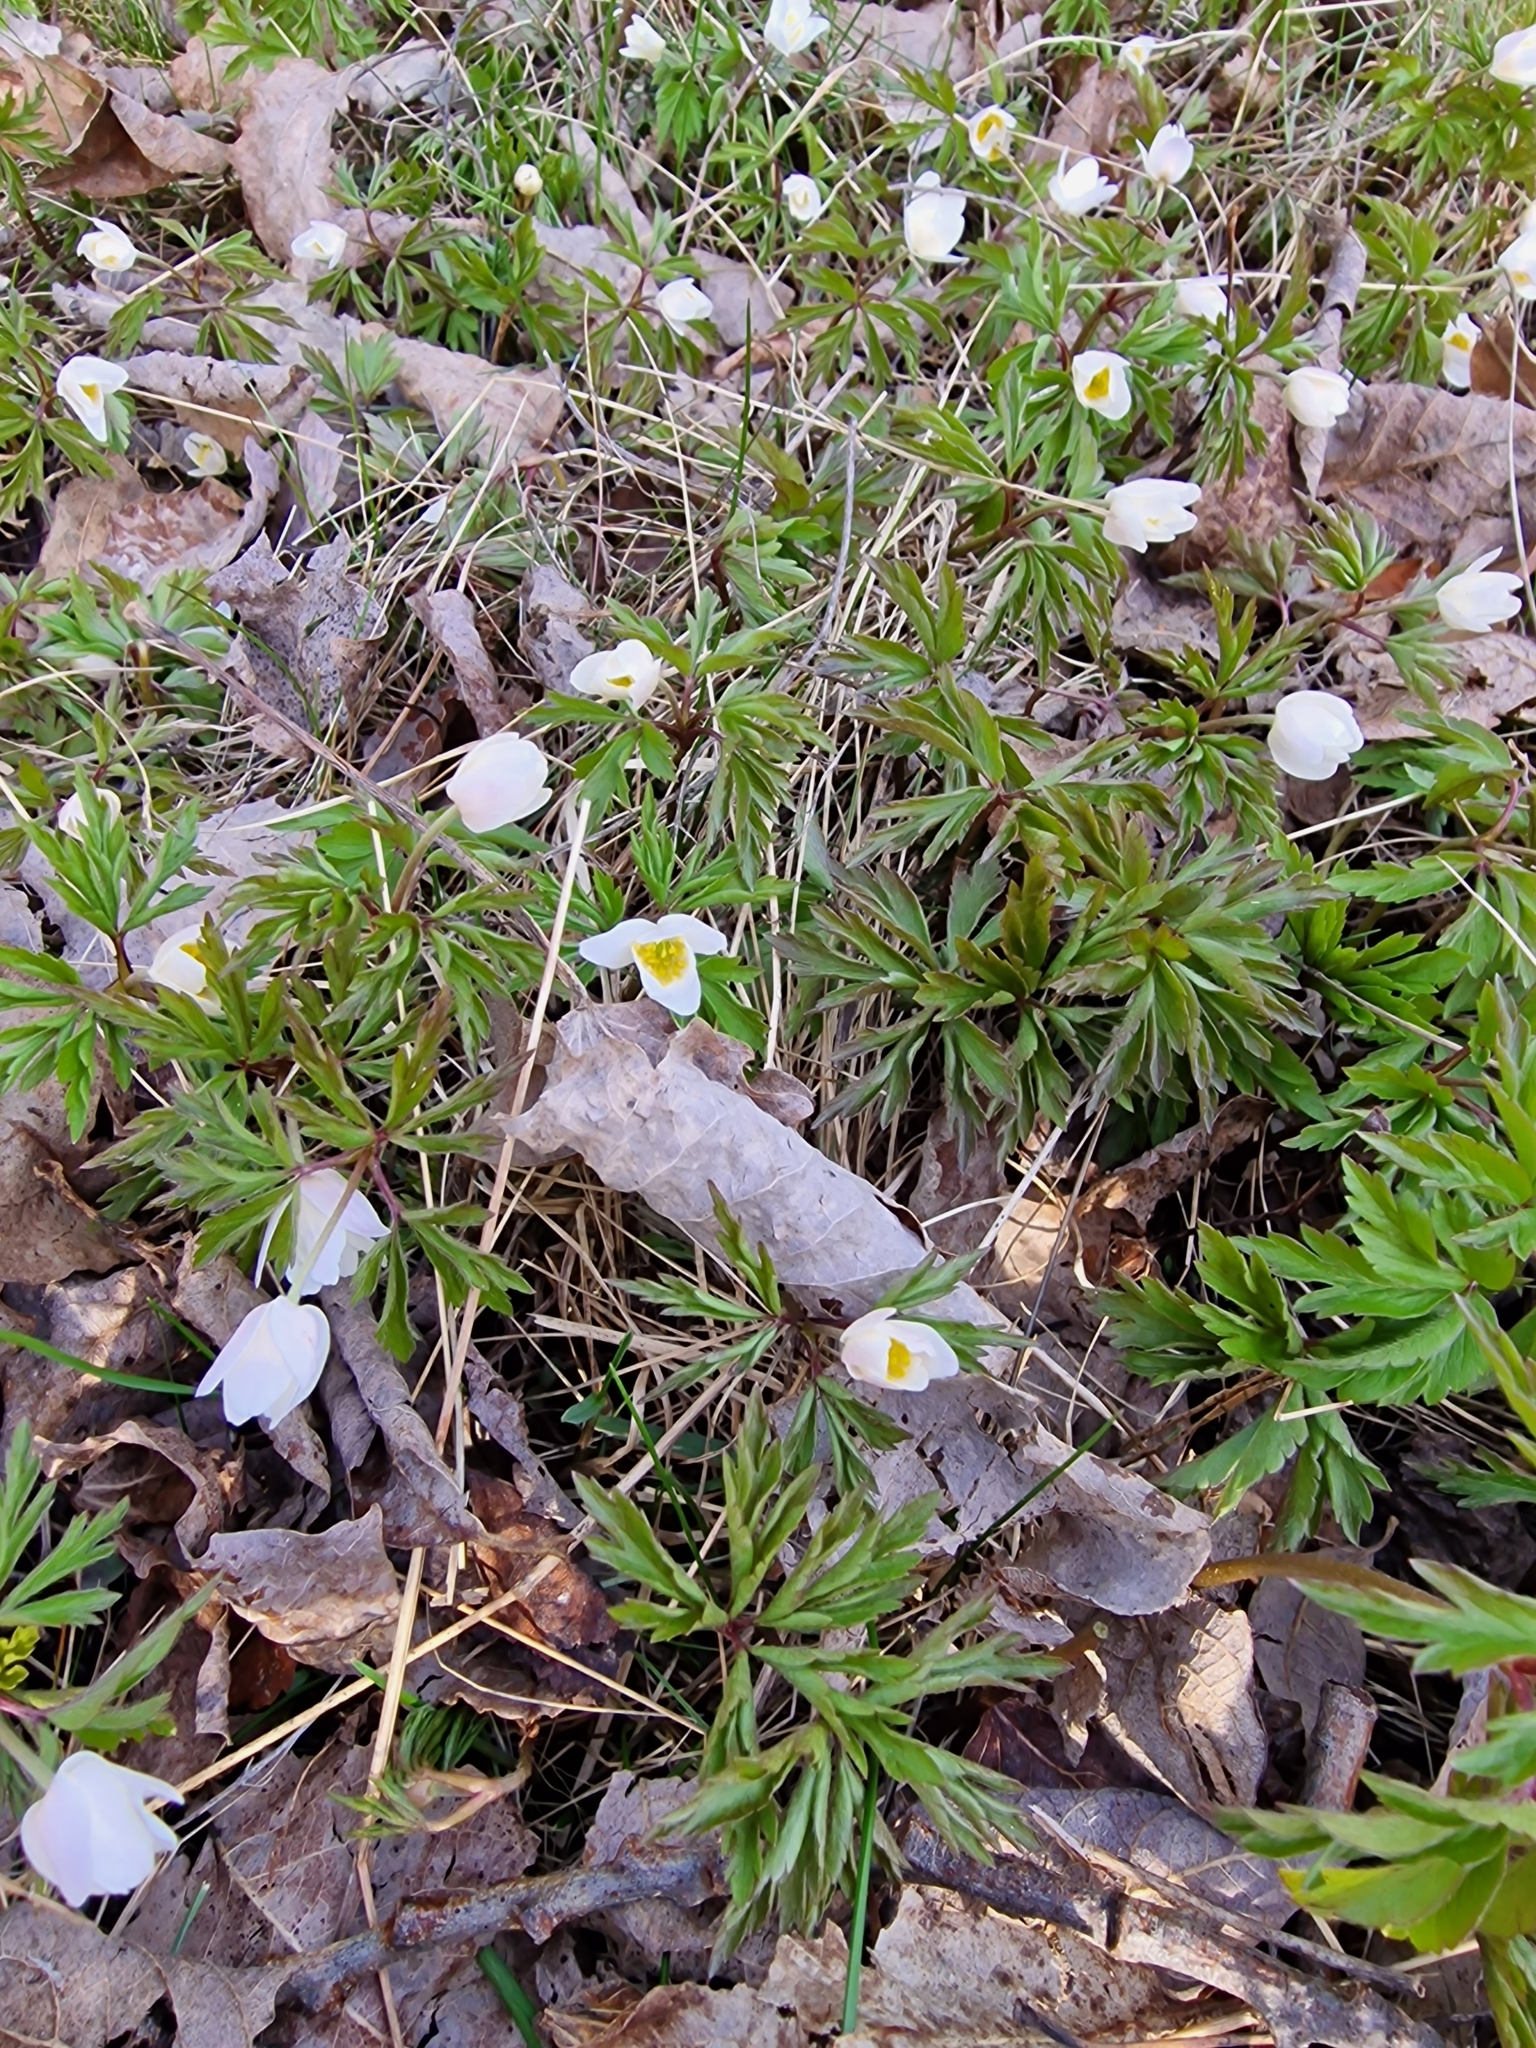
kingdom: Plantae
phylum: Tracheophyta
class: Magnoliopsida
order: Ranunculales
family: Ranunculaceae
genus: Anemone
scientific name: Anemone nemorosa
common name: Wood anemone
